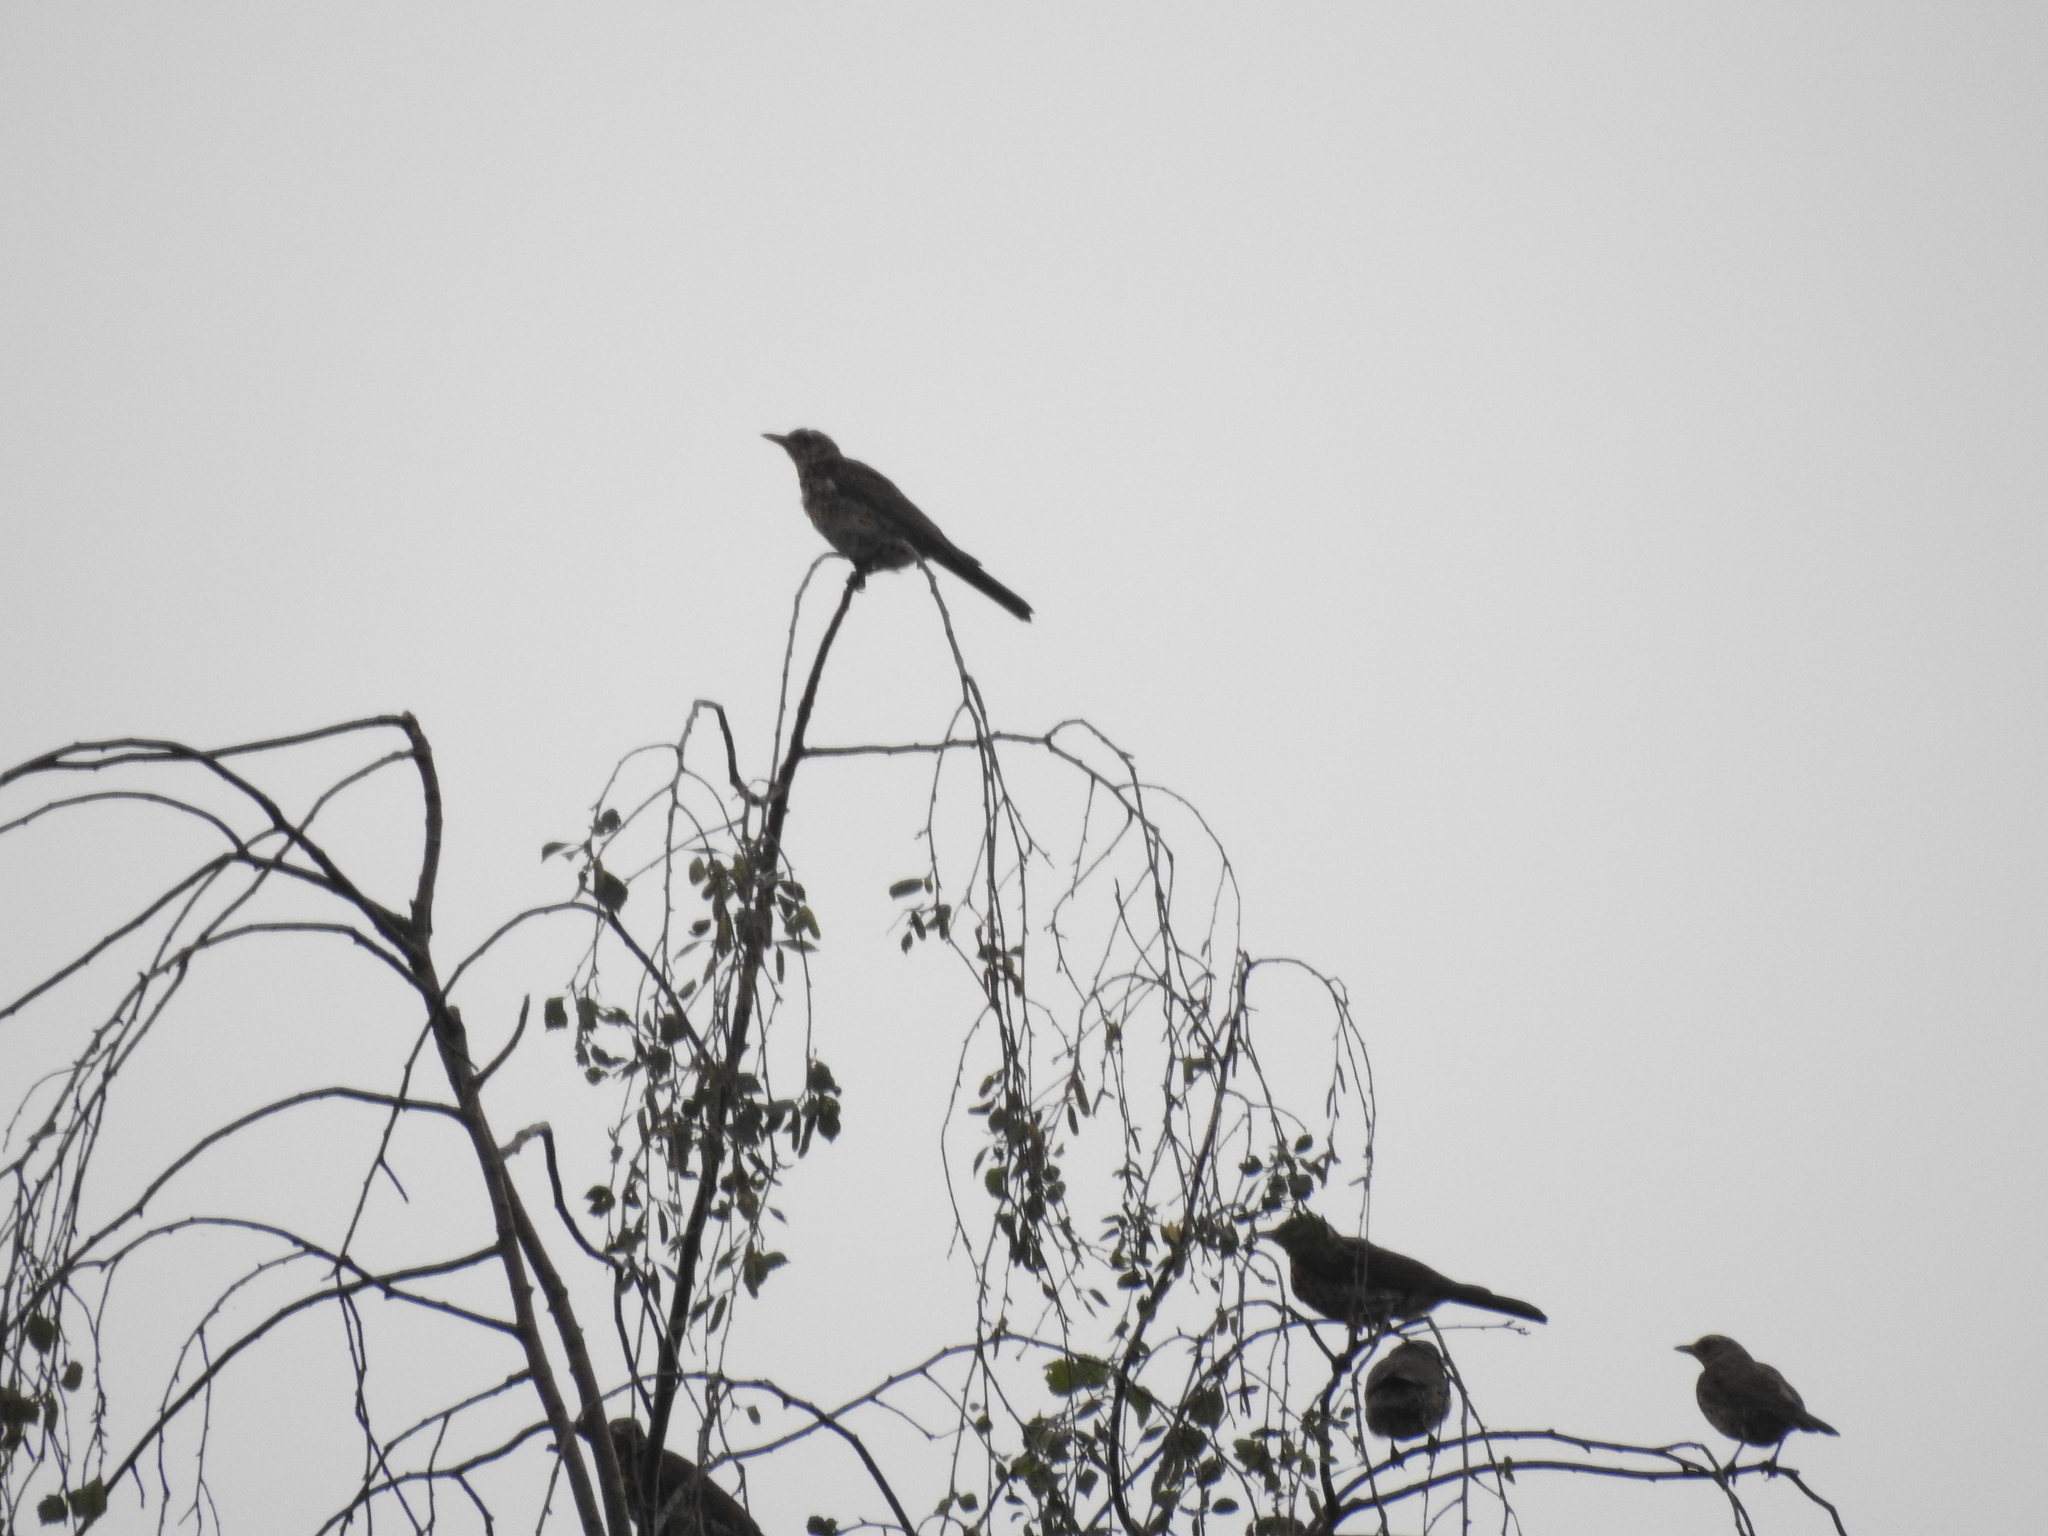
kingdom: Animalia
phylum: Chordata
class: Aves
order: Passeriformes
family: Turdidae
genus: Turdus
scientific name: Turdus pilaris
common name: Fieldfare
